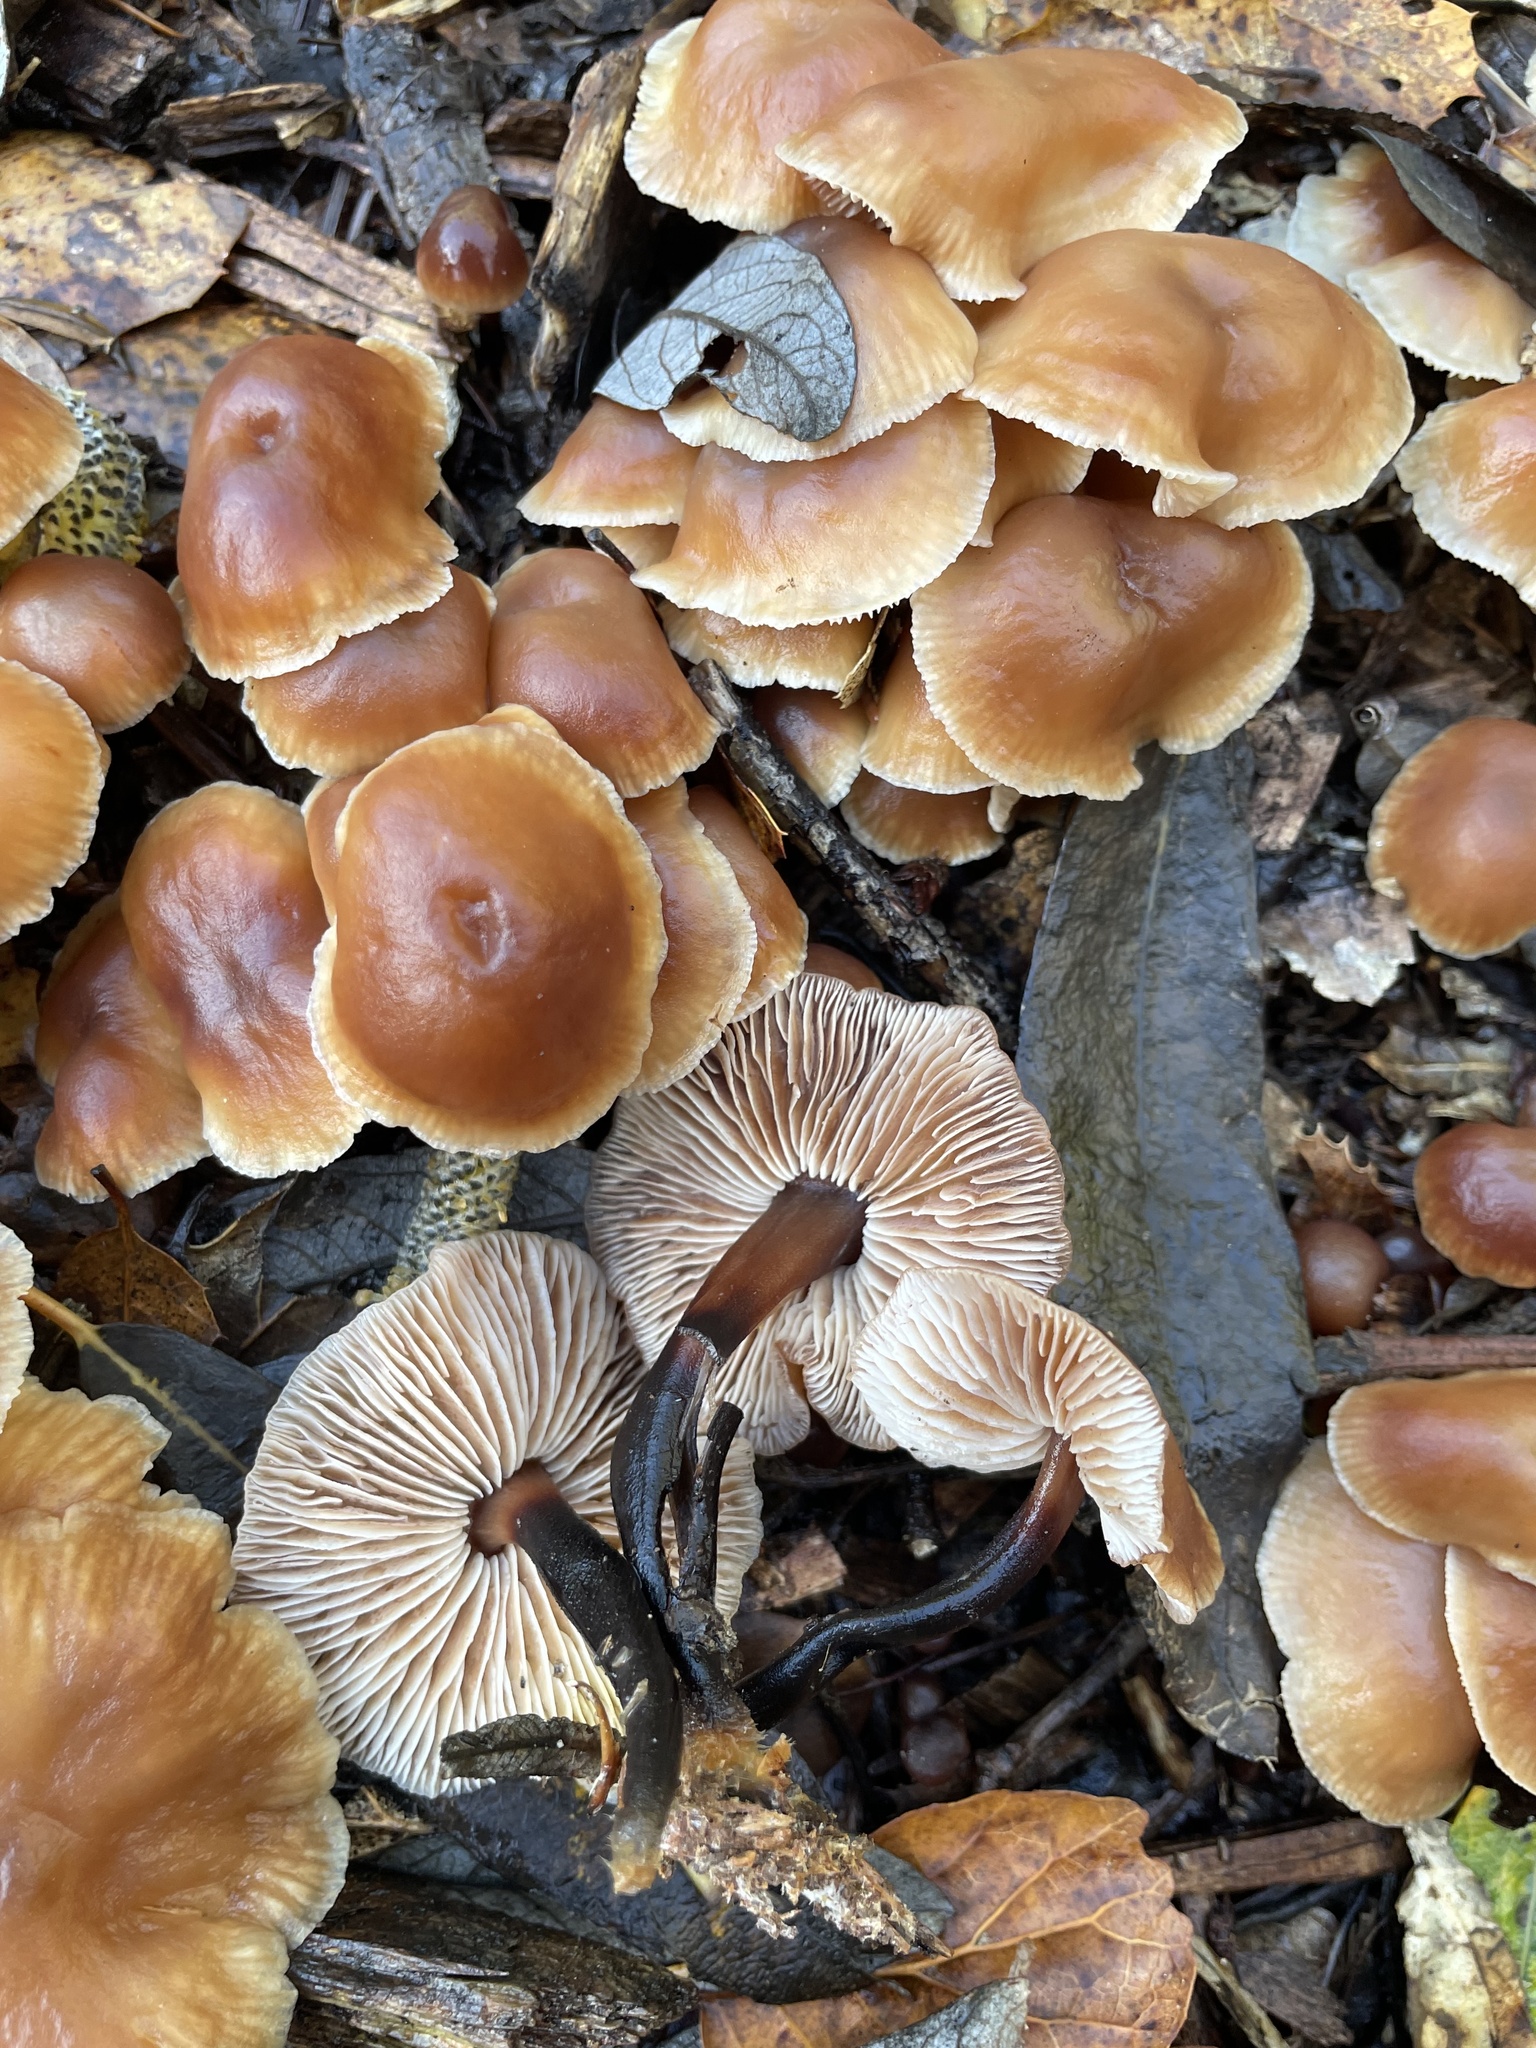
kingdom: Fungi
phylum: Basidiomycota
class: Agaricomycetes
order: Agaricales
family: Omphalotaceae
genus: Gymnopus
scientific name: Gymnopus brassicolens
